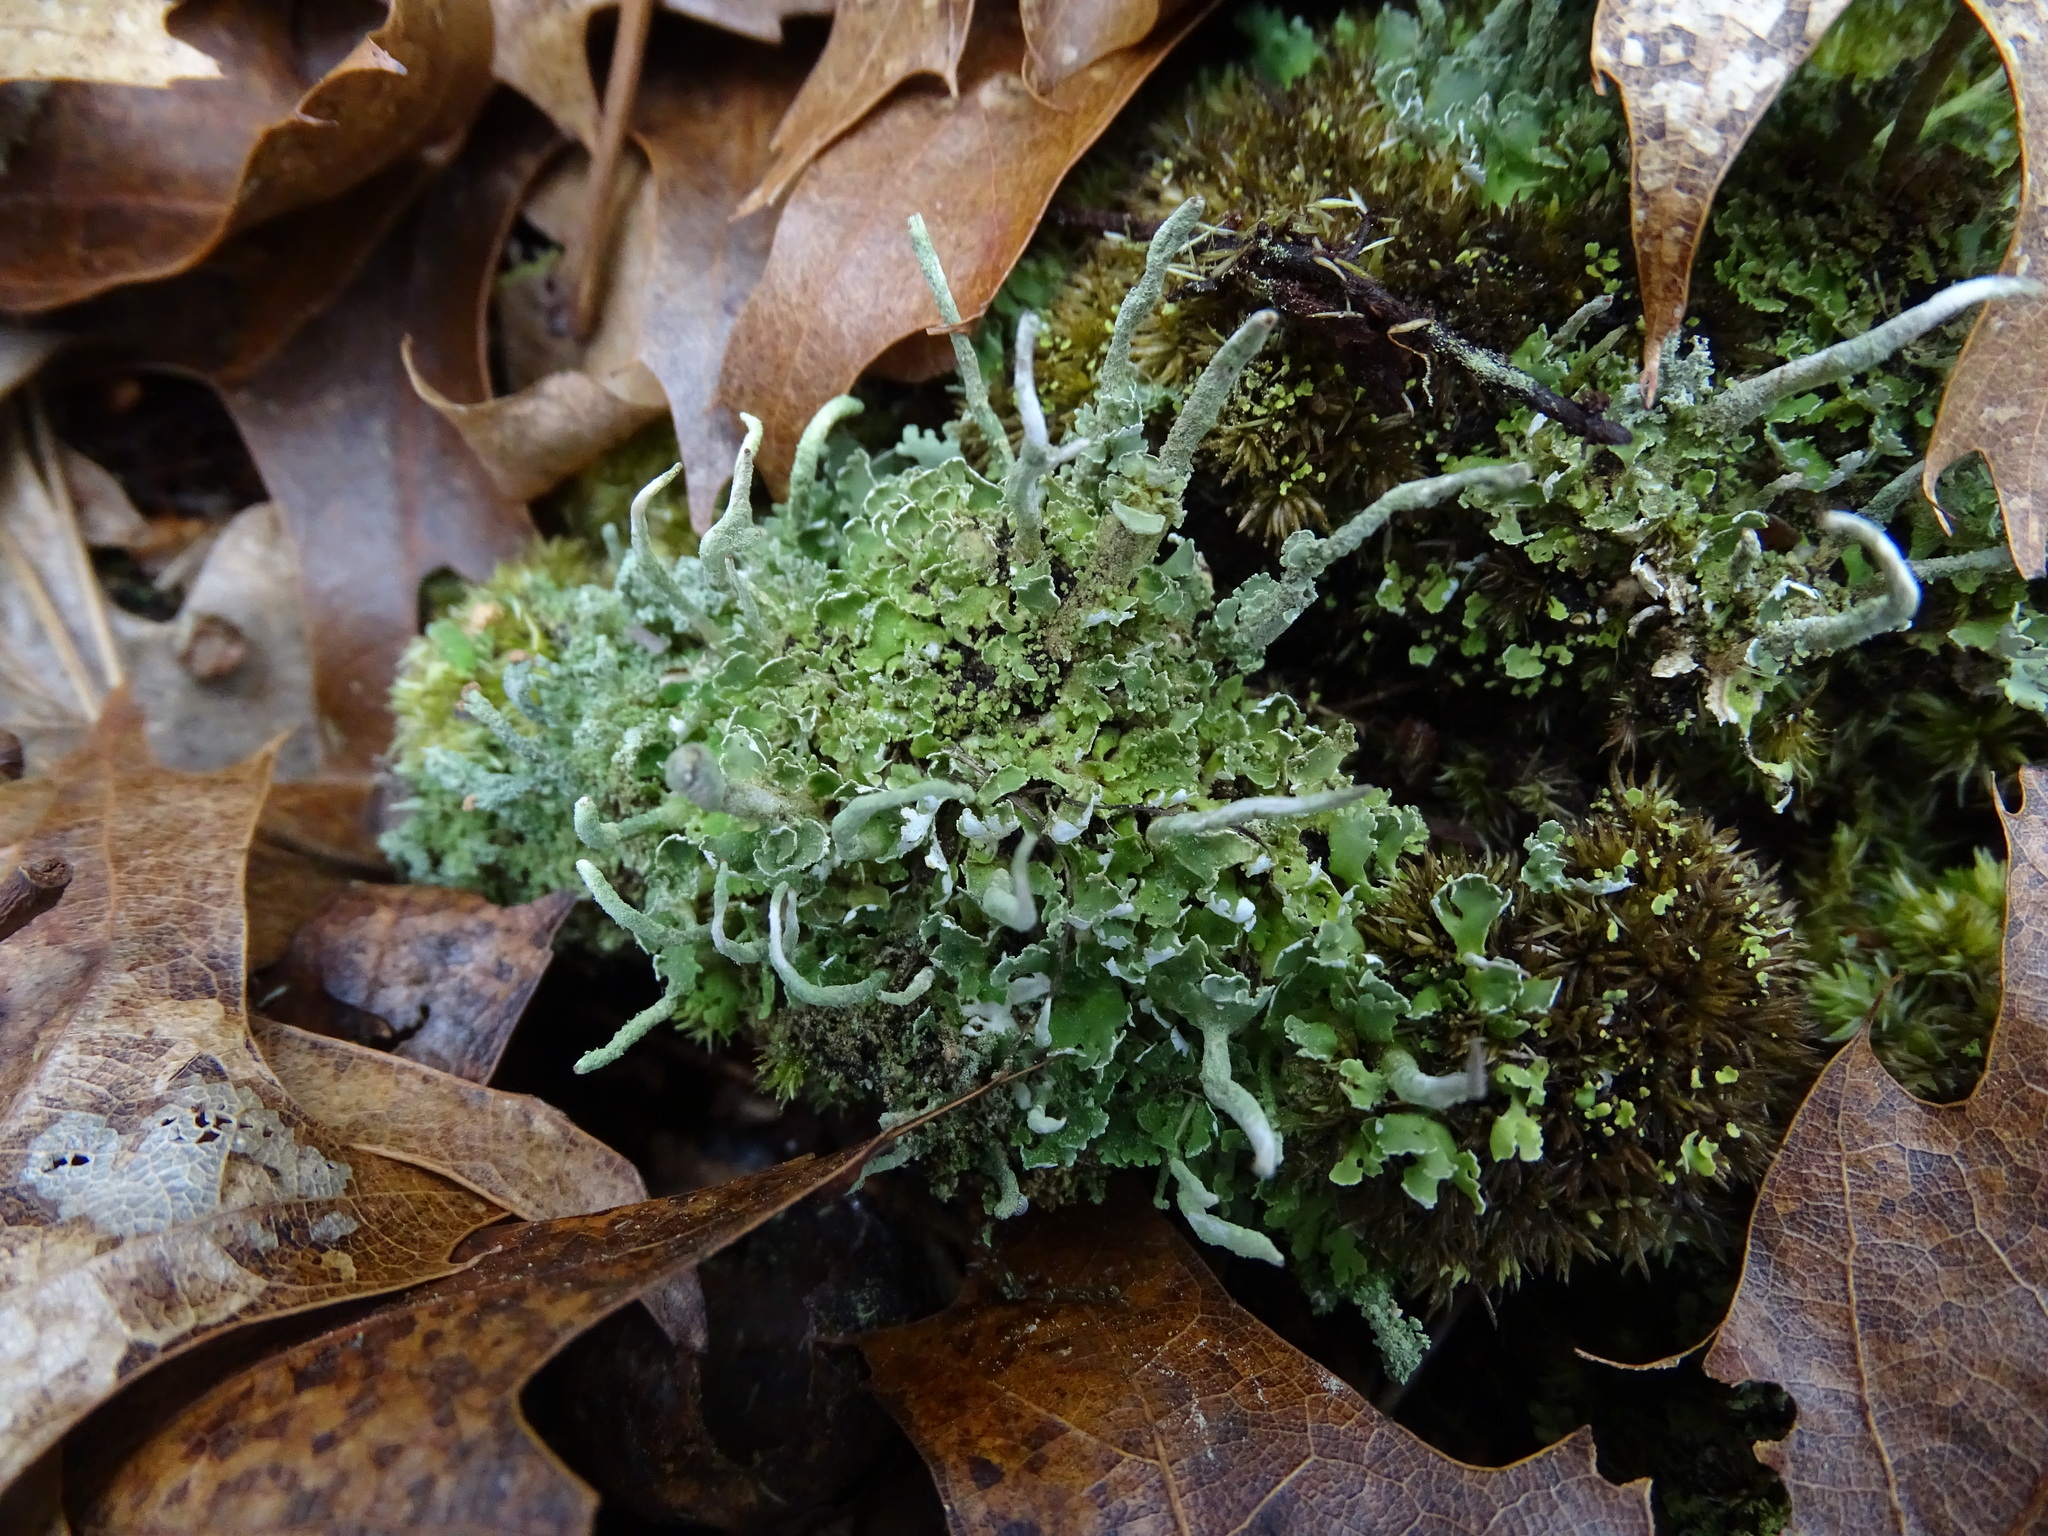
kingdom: Fungi
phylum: Ascomycota
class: Lecanoromycetes
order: Lecanorales
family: Cladoniaceae
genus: Cladonia
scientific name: Cladonia coniocraea
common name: Common powderhorn
